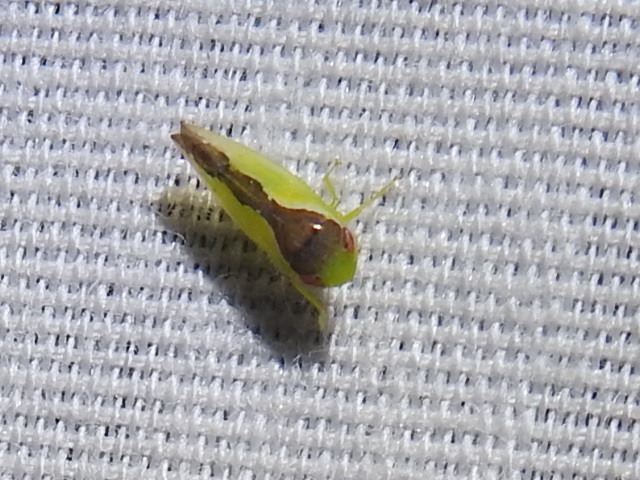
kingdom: Animalia
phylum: Arthropoda
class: Insecta
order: Hemiptera
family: Cicadellidae
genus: Omansobara ing
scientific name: Omansobara ing Omansobara palliolata
